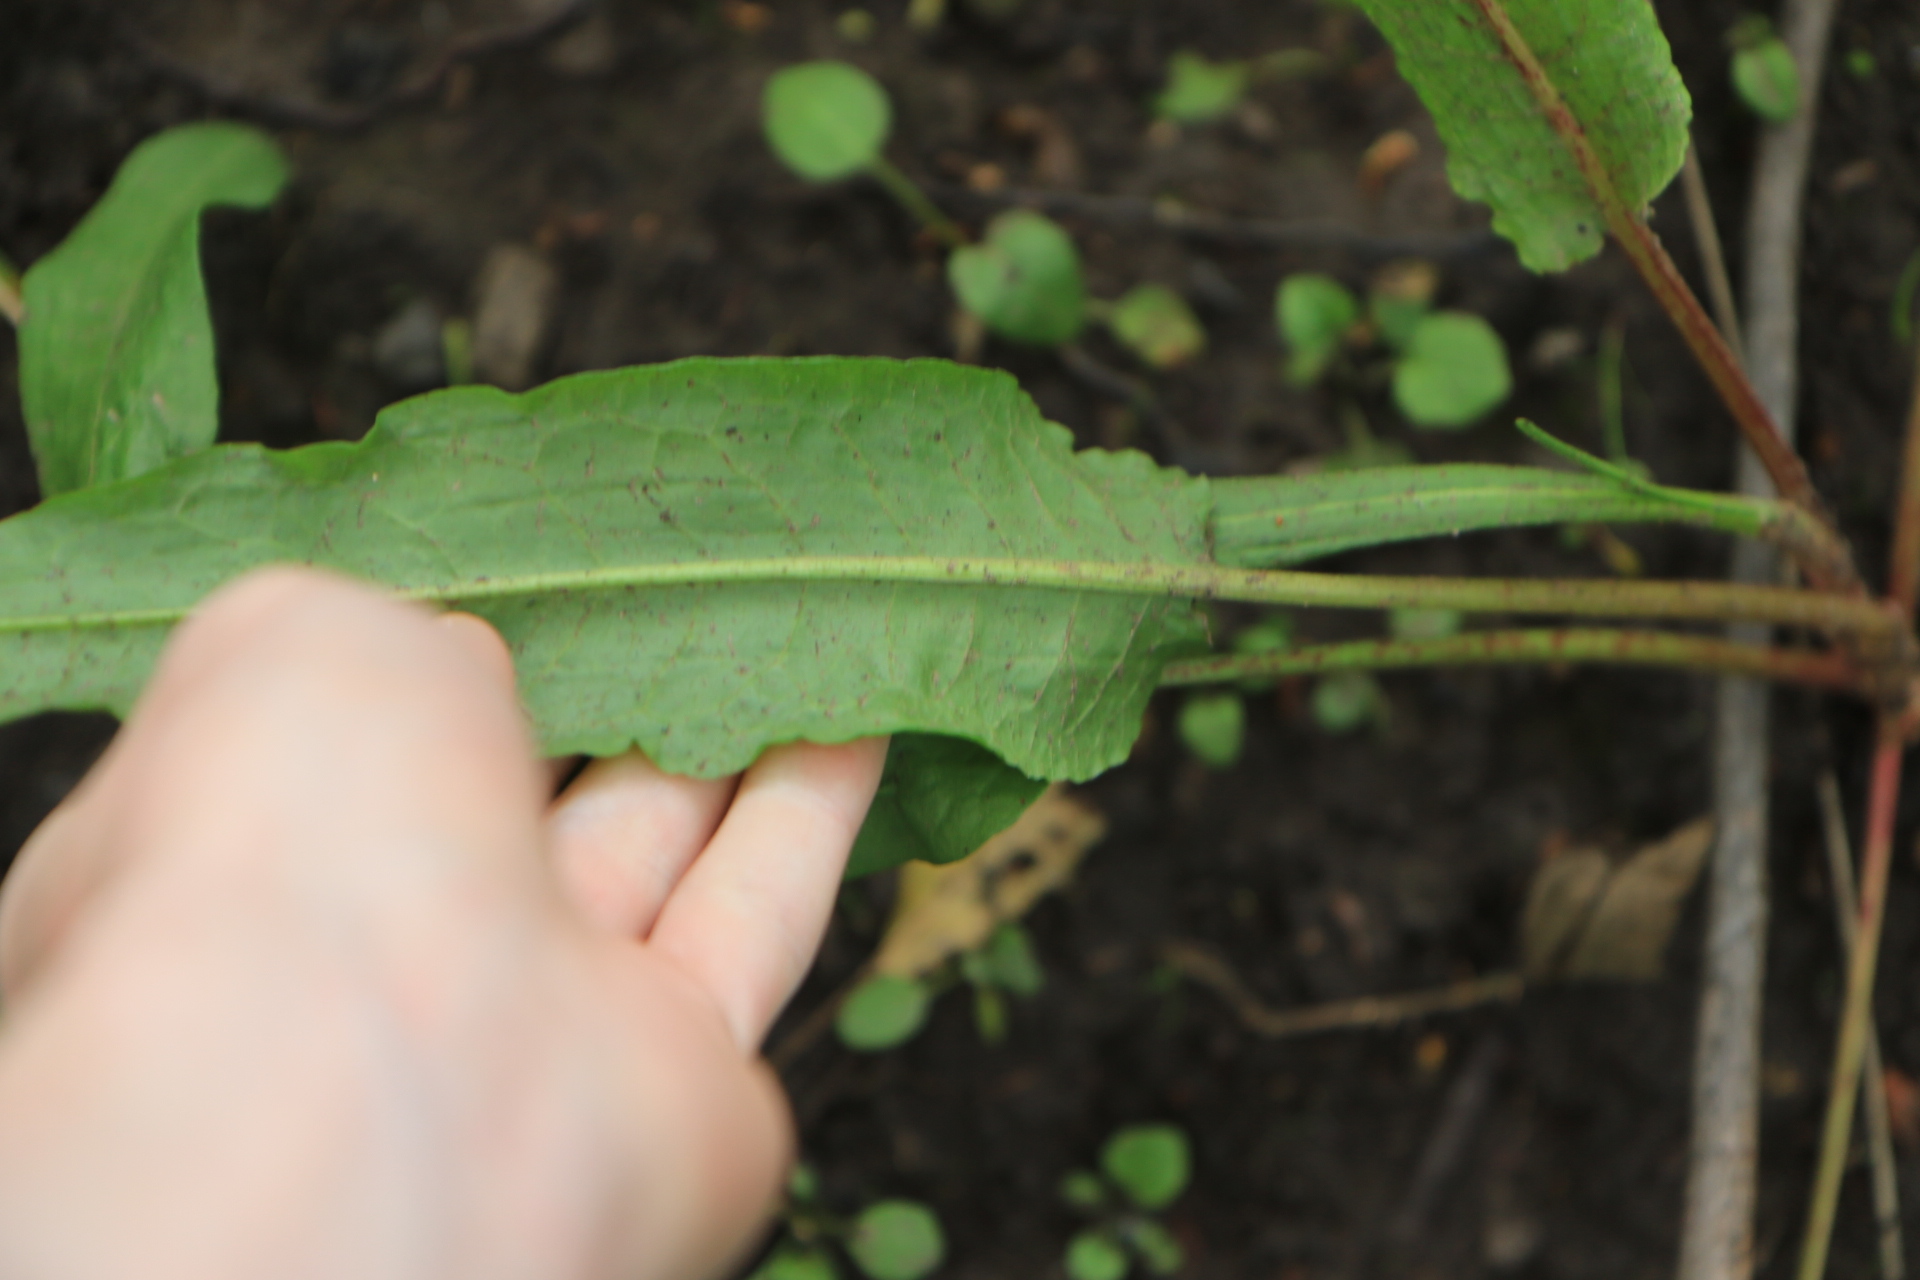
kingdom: Plantae
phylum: Tracheophyta
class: Magnoliopsida
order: Caryophyllales
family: Polygonaceae
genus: Rumex
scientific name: Rumex
